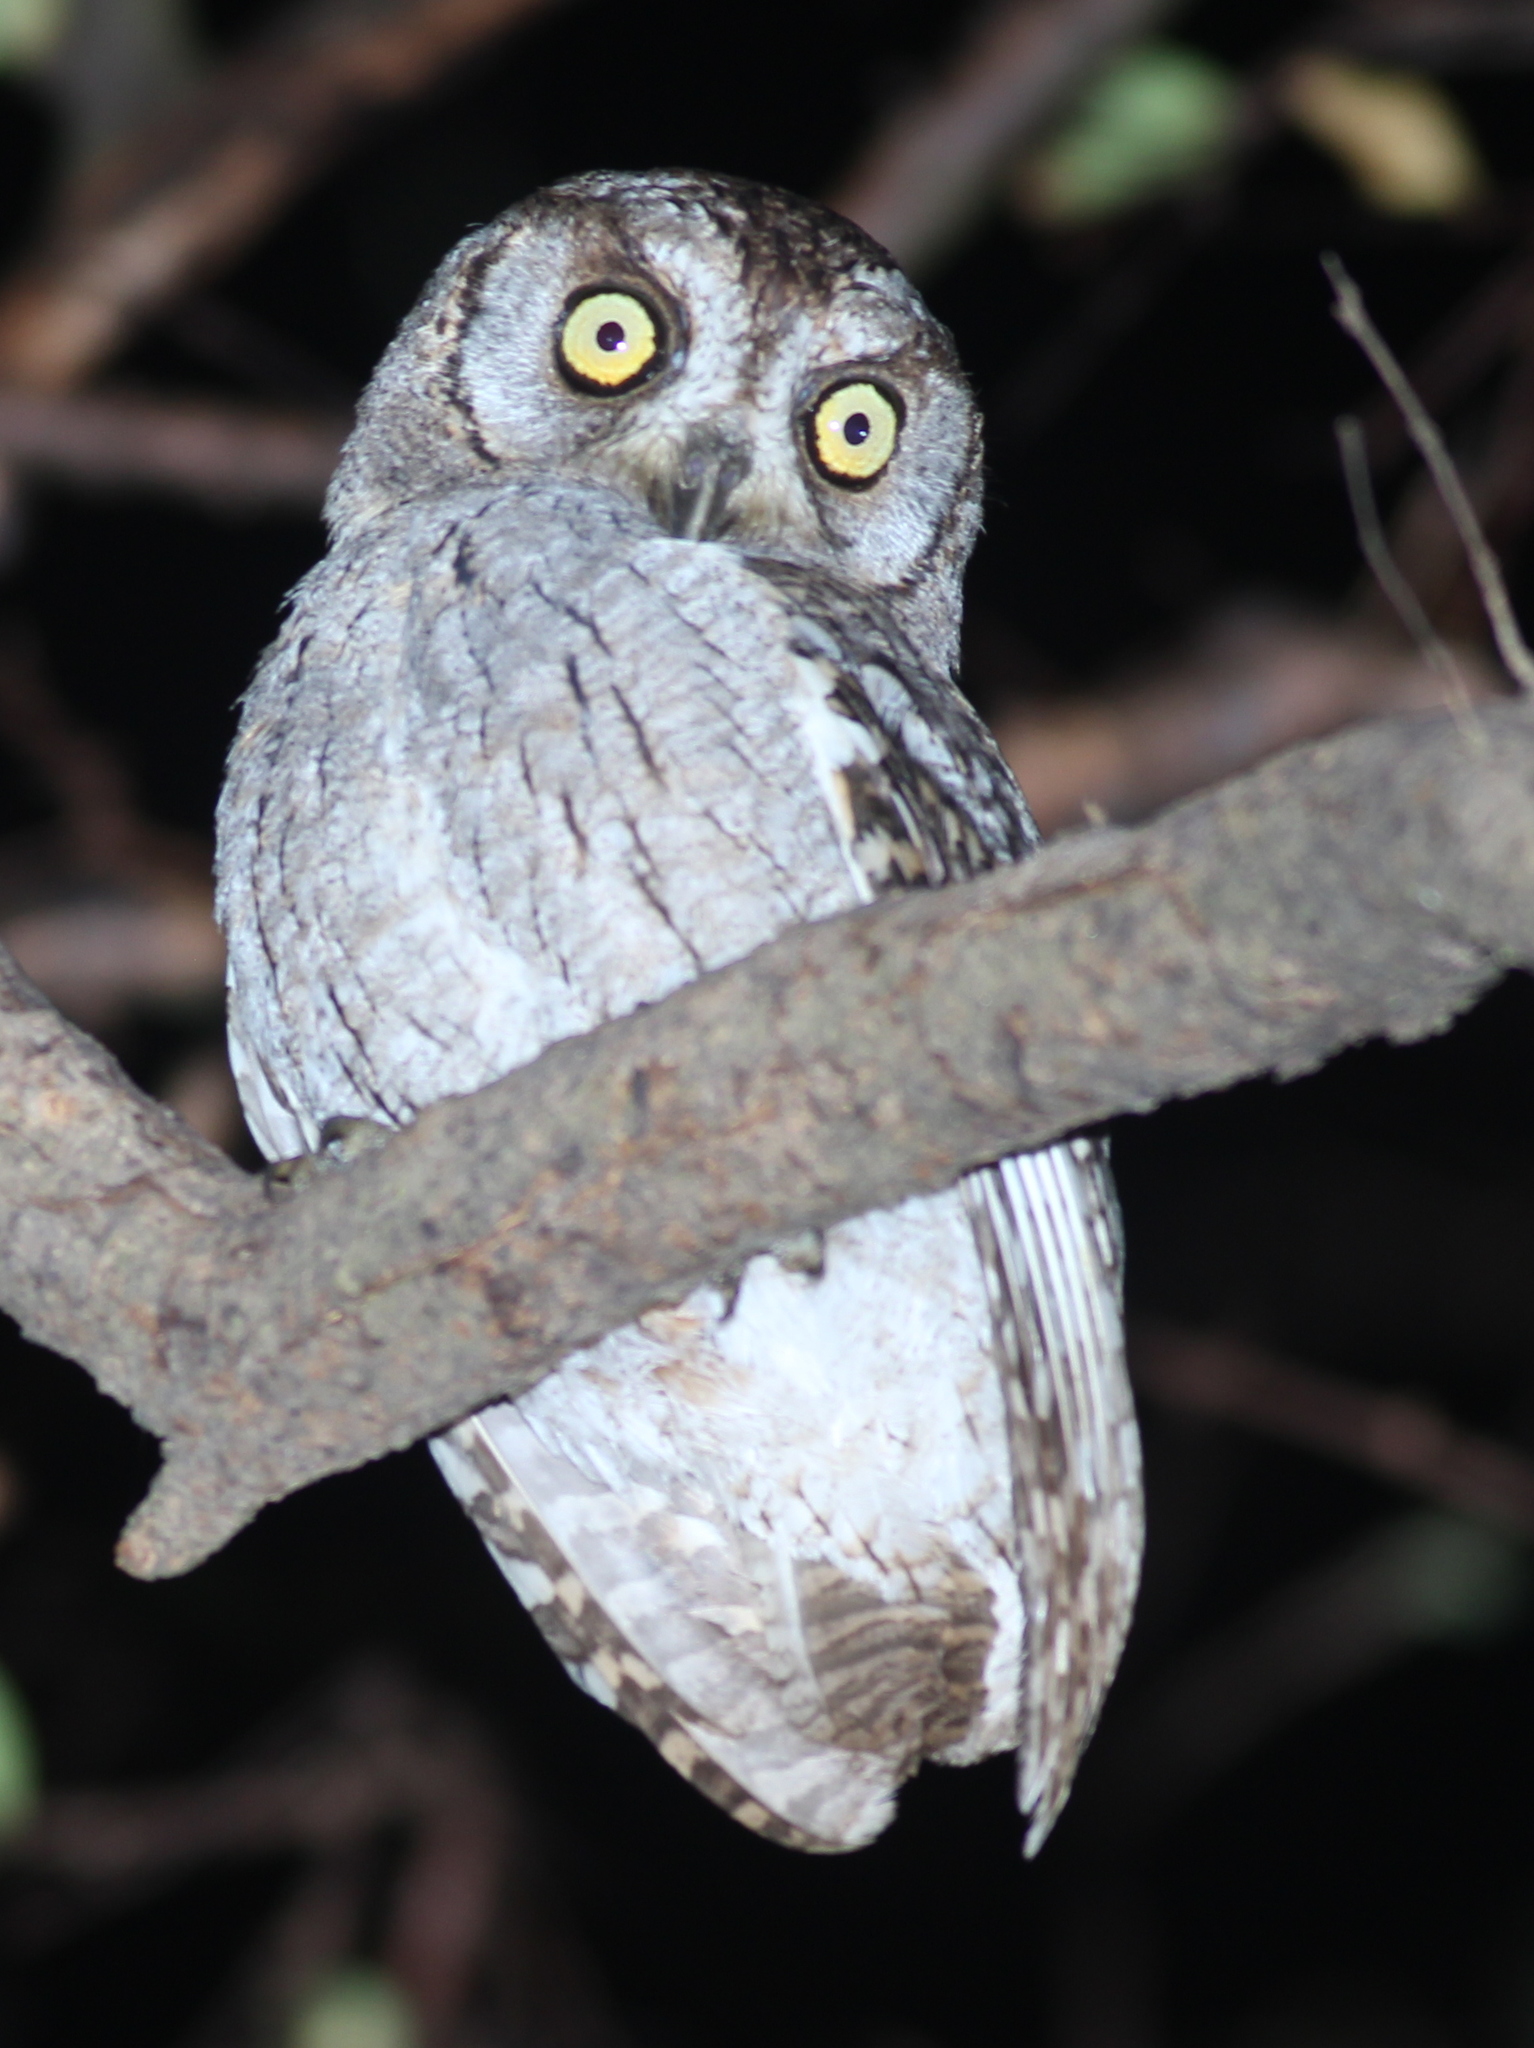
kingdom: Animalia
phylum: Chordata
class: Aves
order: Strigiformes
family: Strigidae
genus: Otus
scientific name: Otus pamelae
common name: Arabian scops owl
